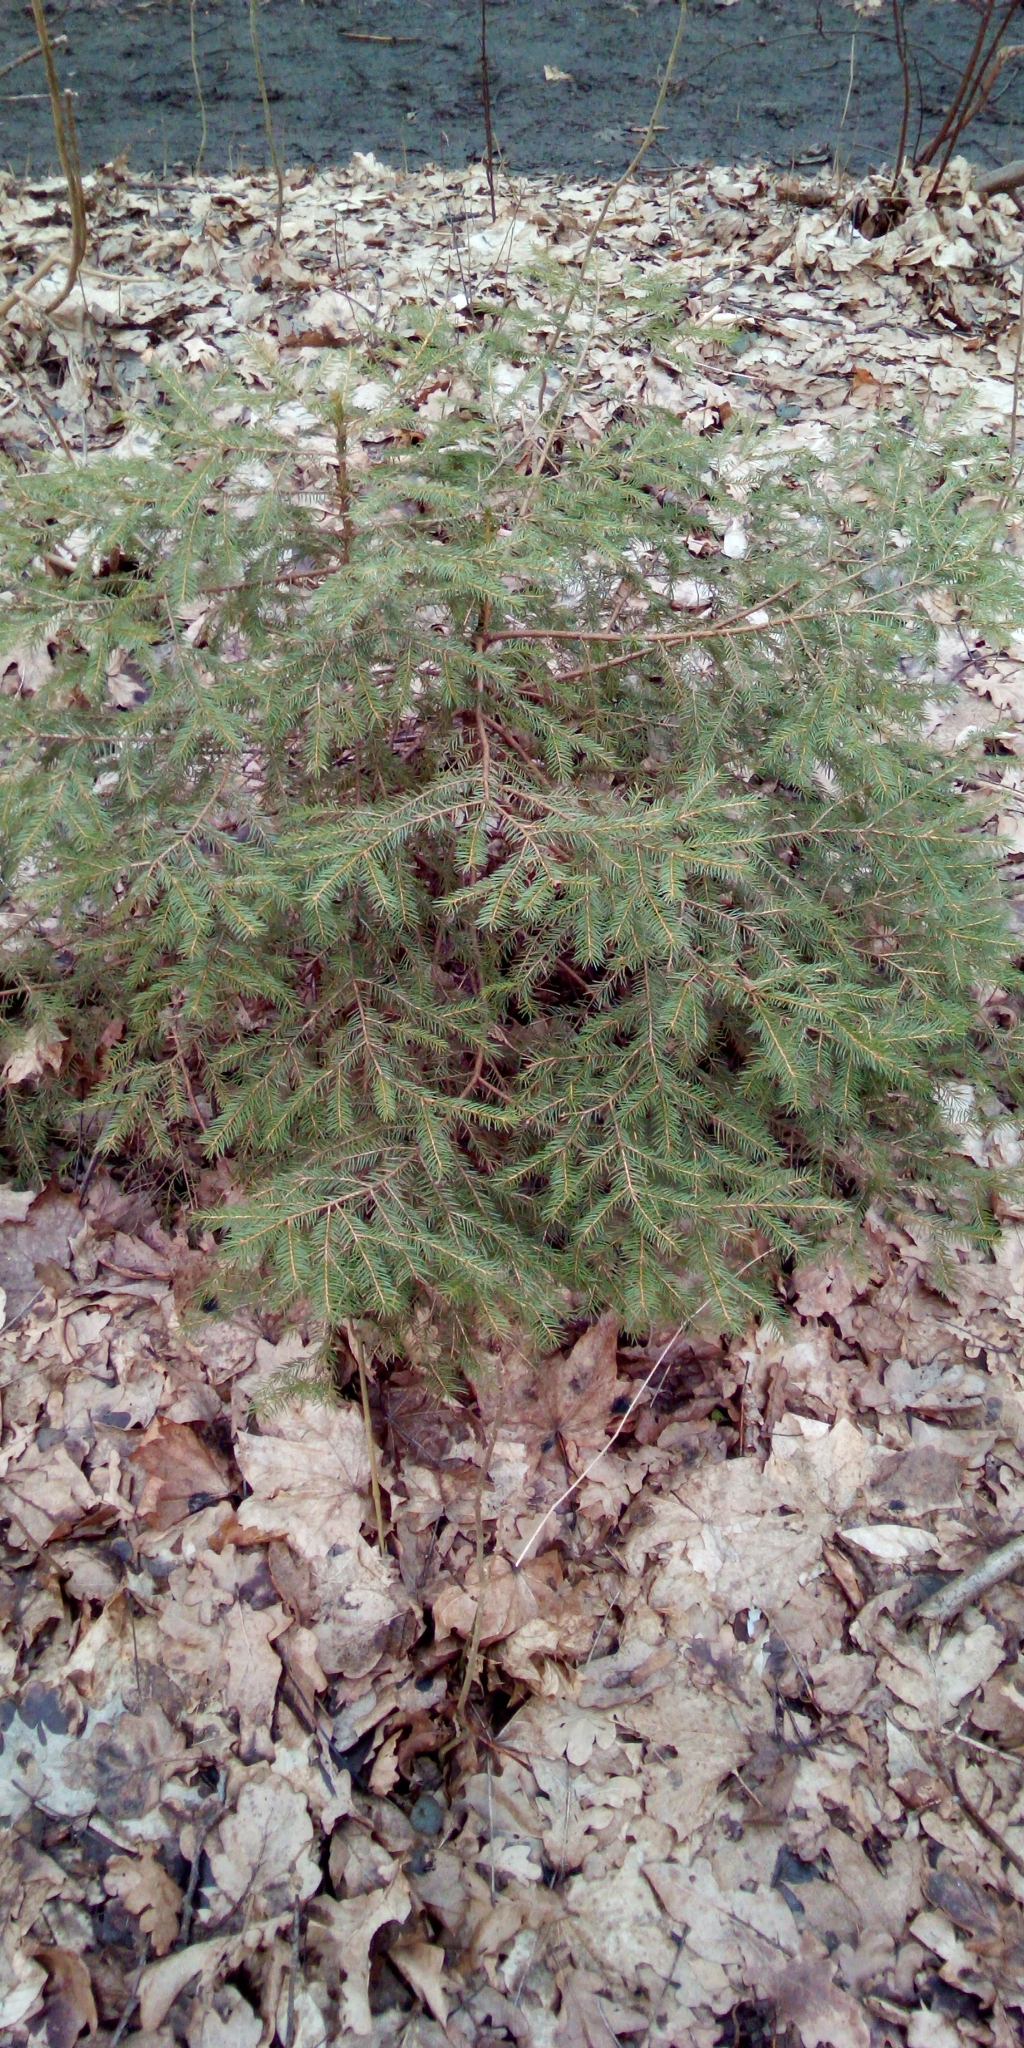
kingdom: Plantae
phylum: Tracheophyta
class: Pinopsida
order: Pinales
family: Pinaceae
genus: Picea
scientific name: Picea abies
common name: Norway spruce
